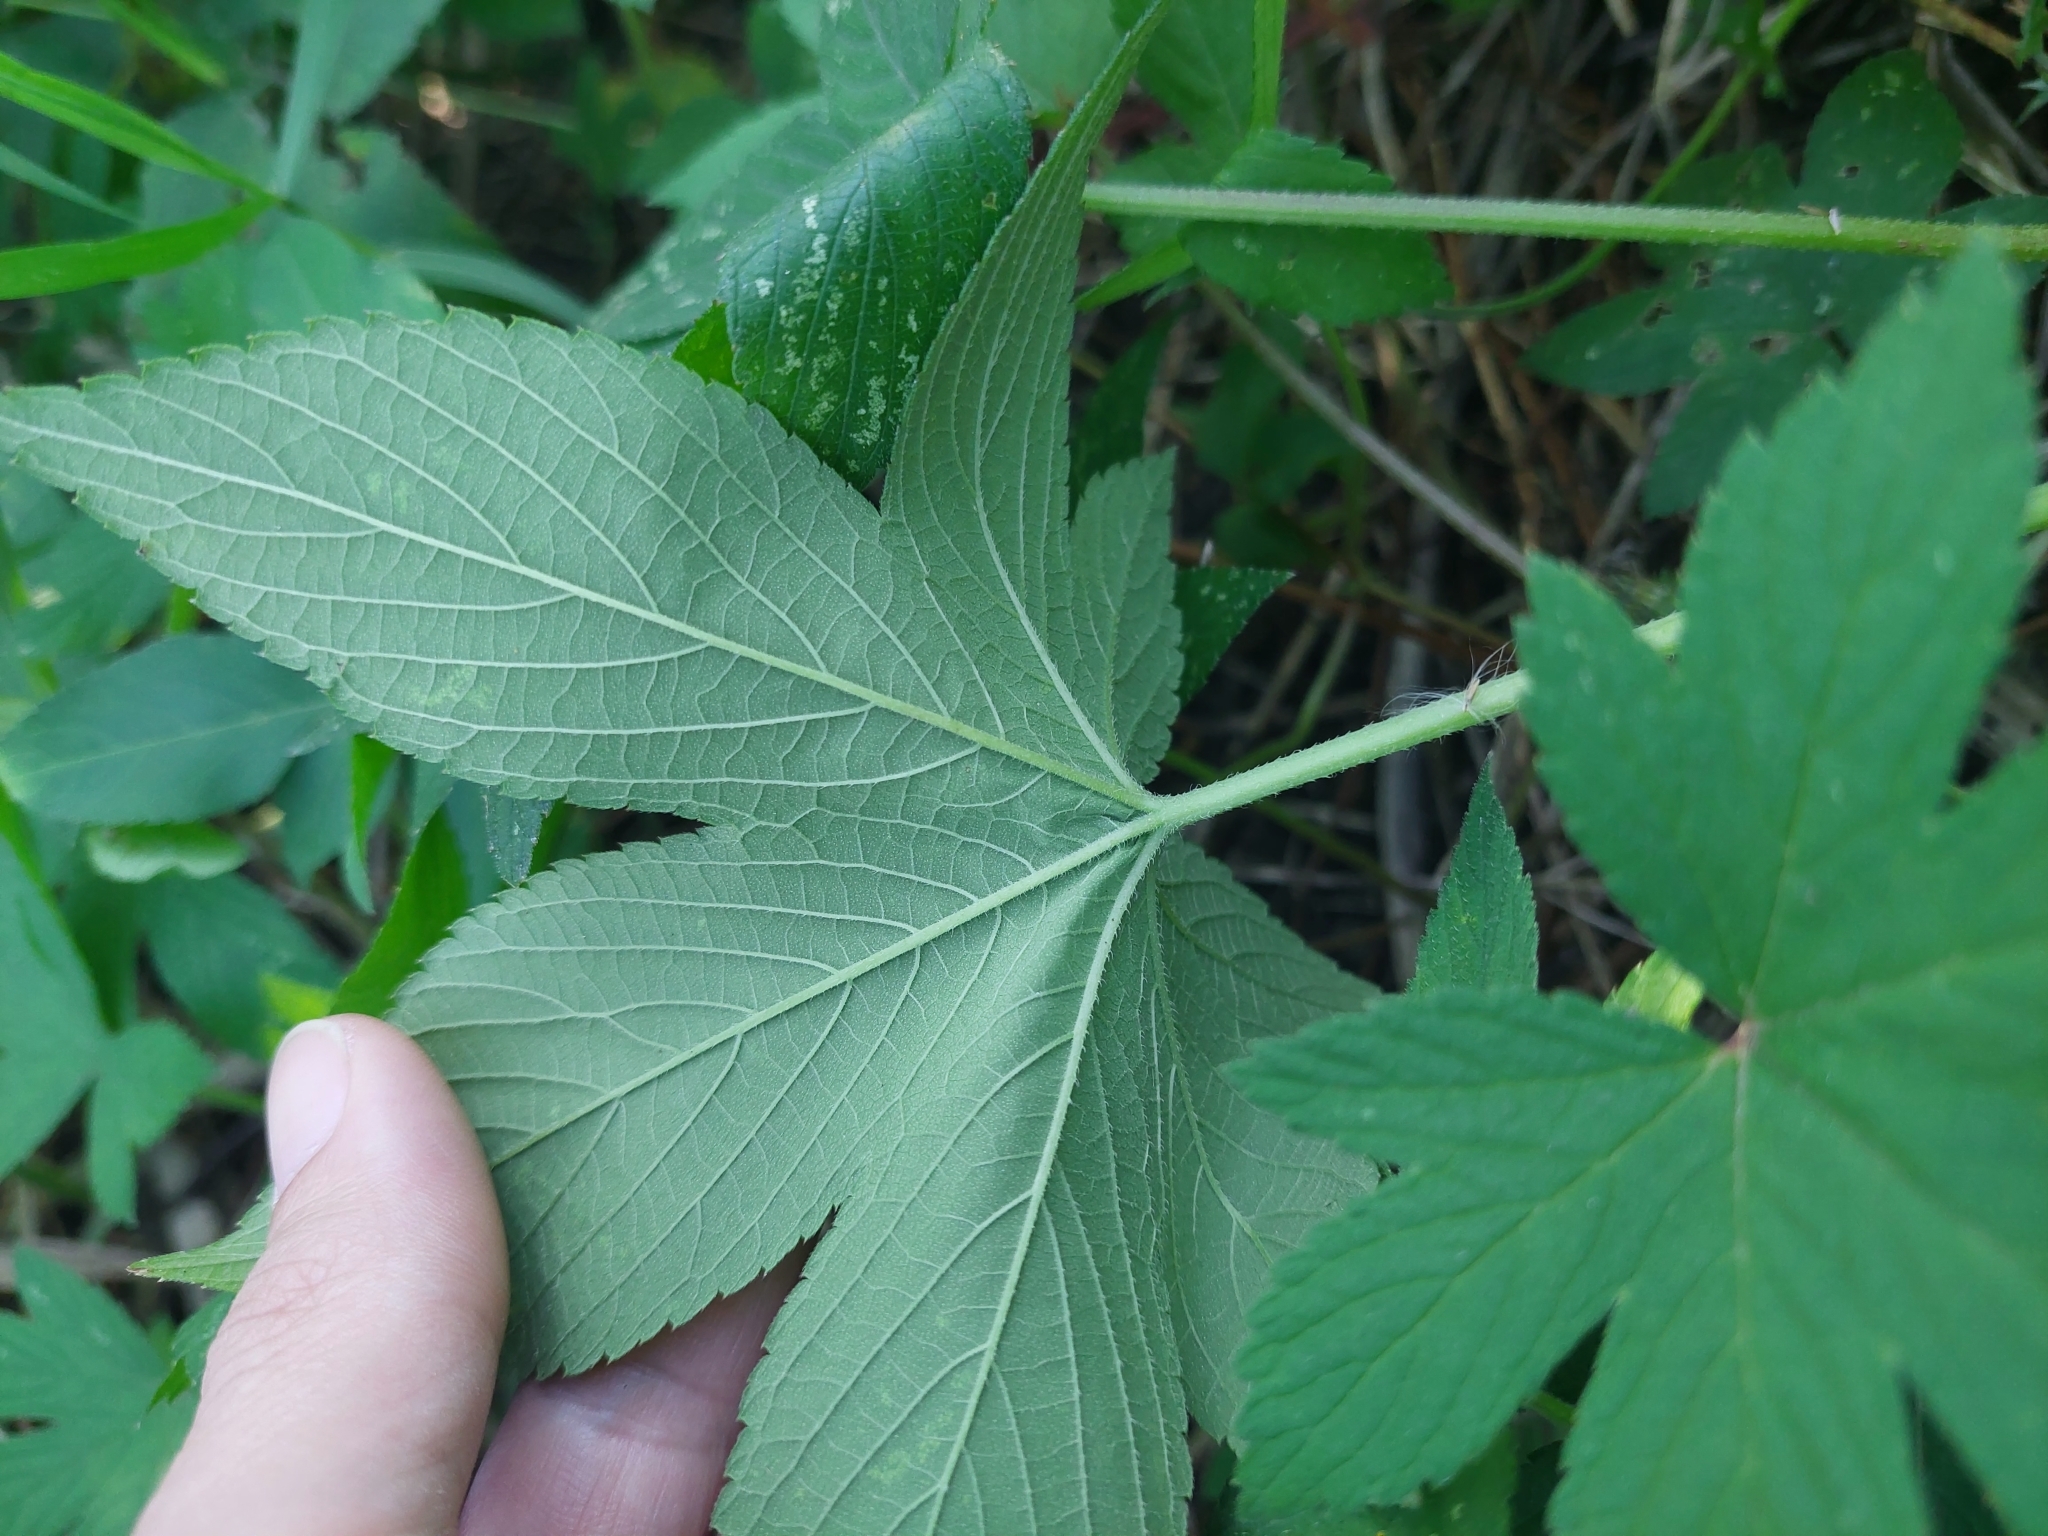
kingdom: Plantae
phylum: Tracheophyta
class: Magnoliopsida
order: Rosales
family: Cannabaceae
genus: Humulus
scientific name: Humulus scandens
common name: Japanese hop
